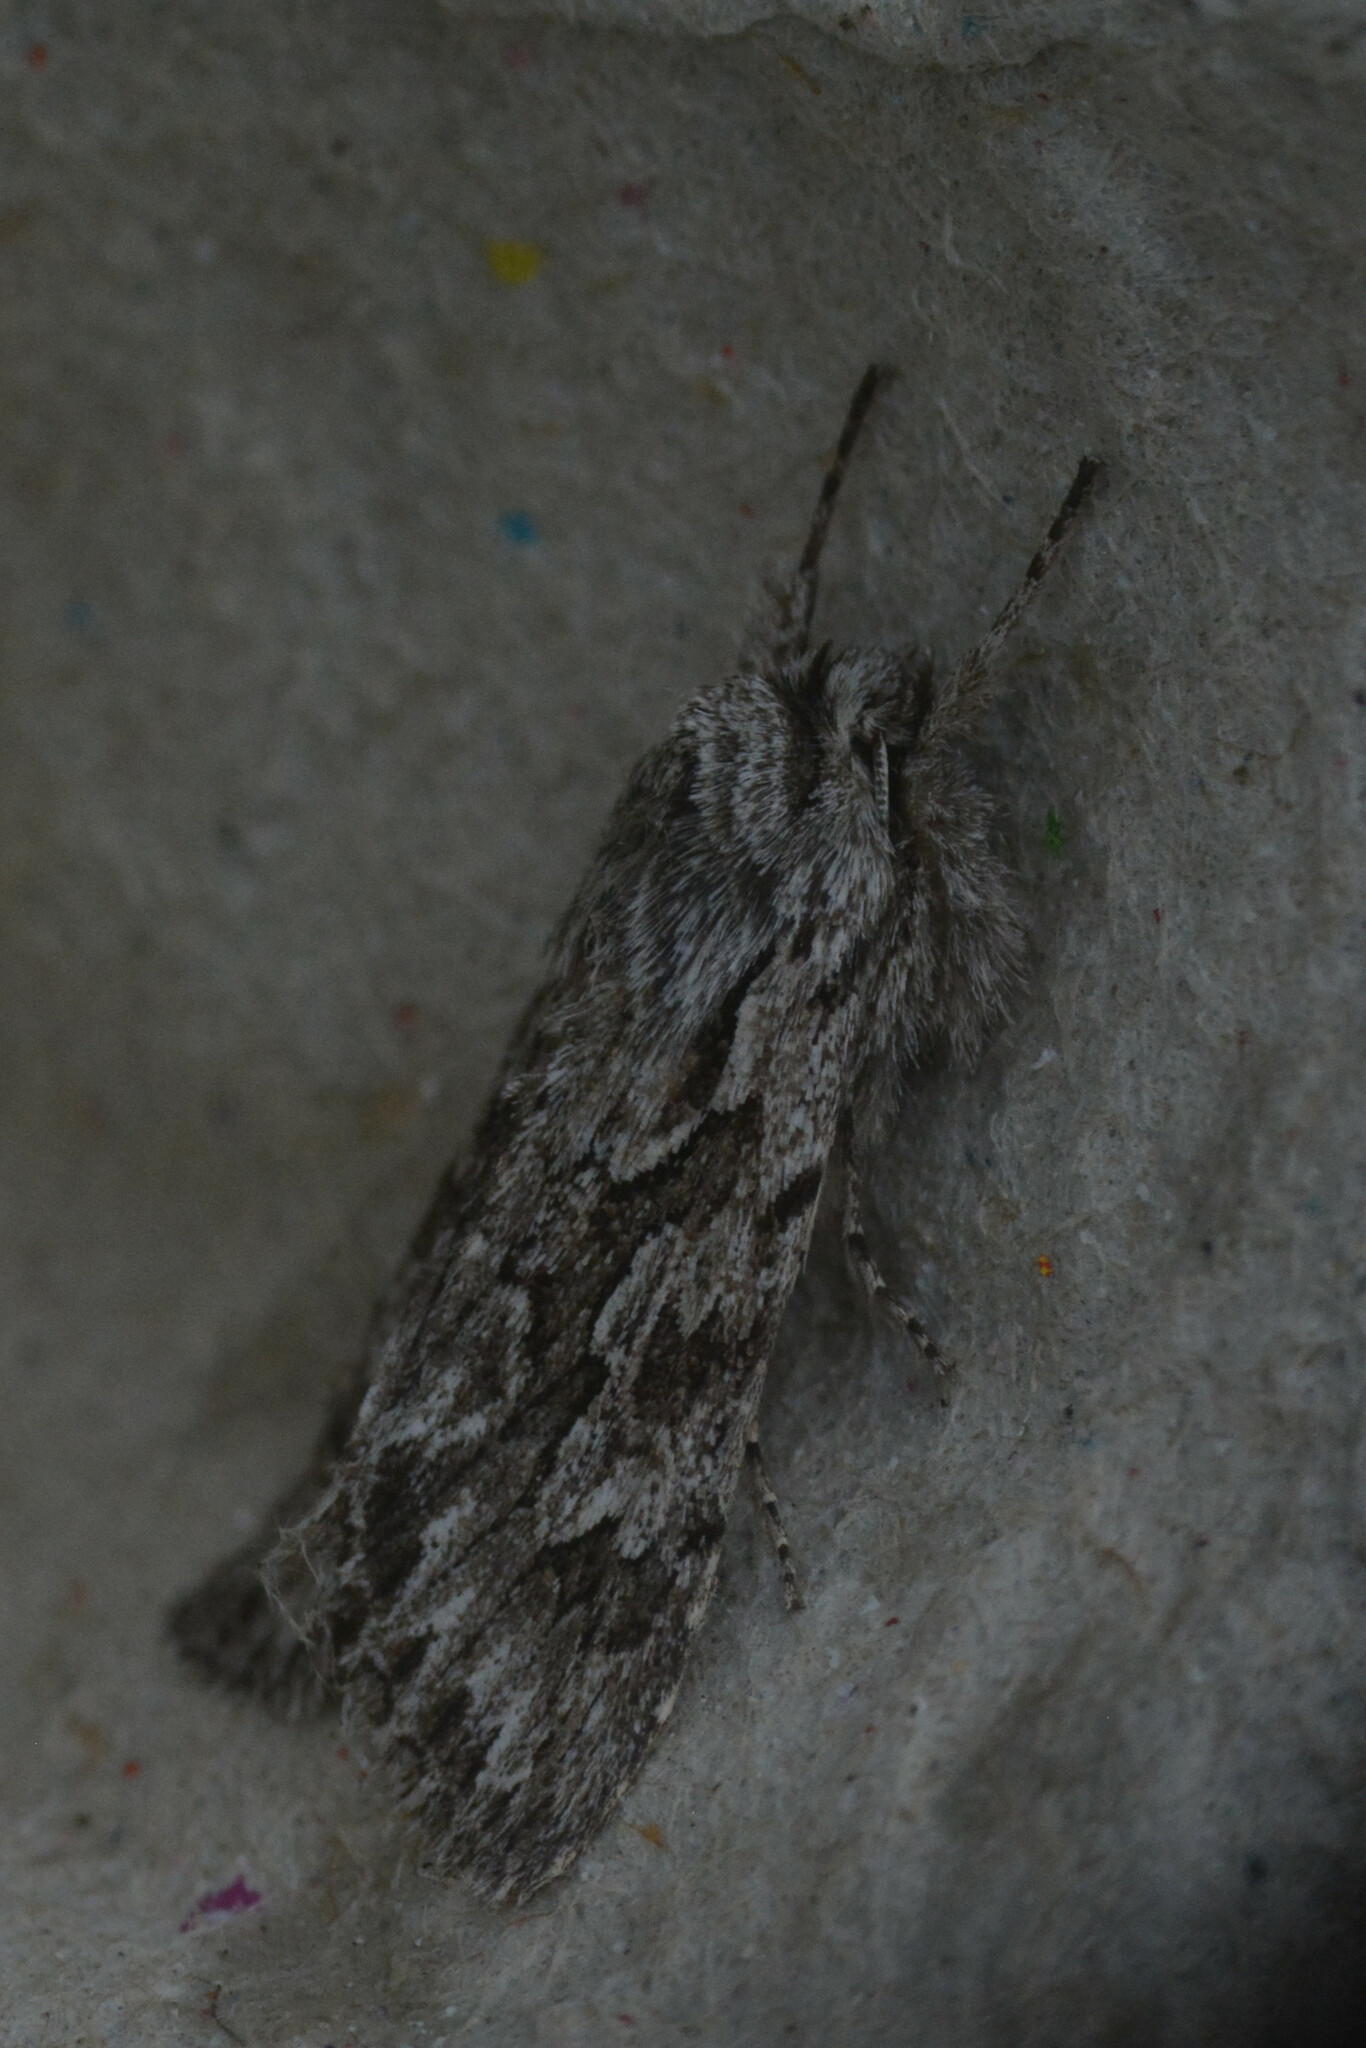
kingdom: Animalia
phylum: Arthropoda
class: Insecta
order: Lepidoptera
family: Noctuidae
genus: Xylocampa
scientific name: Xylocampa areola
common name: Early grey
